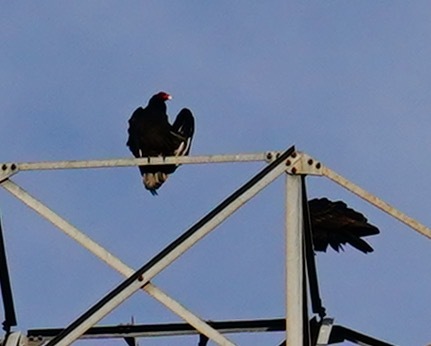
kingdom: Animalia
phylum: Chordata
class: Aves
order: Accipitriformes
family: Cathartidae
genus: Cathartes
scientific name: Cathartes aura
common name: Turkey vulture
